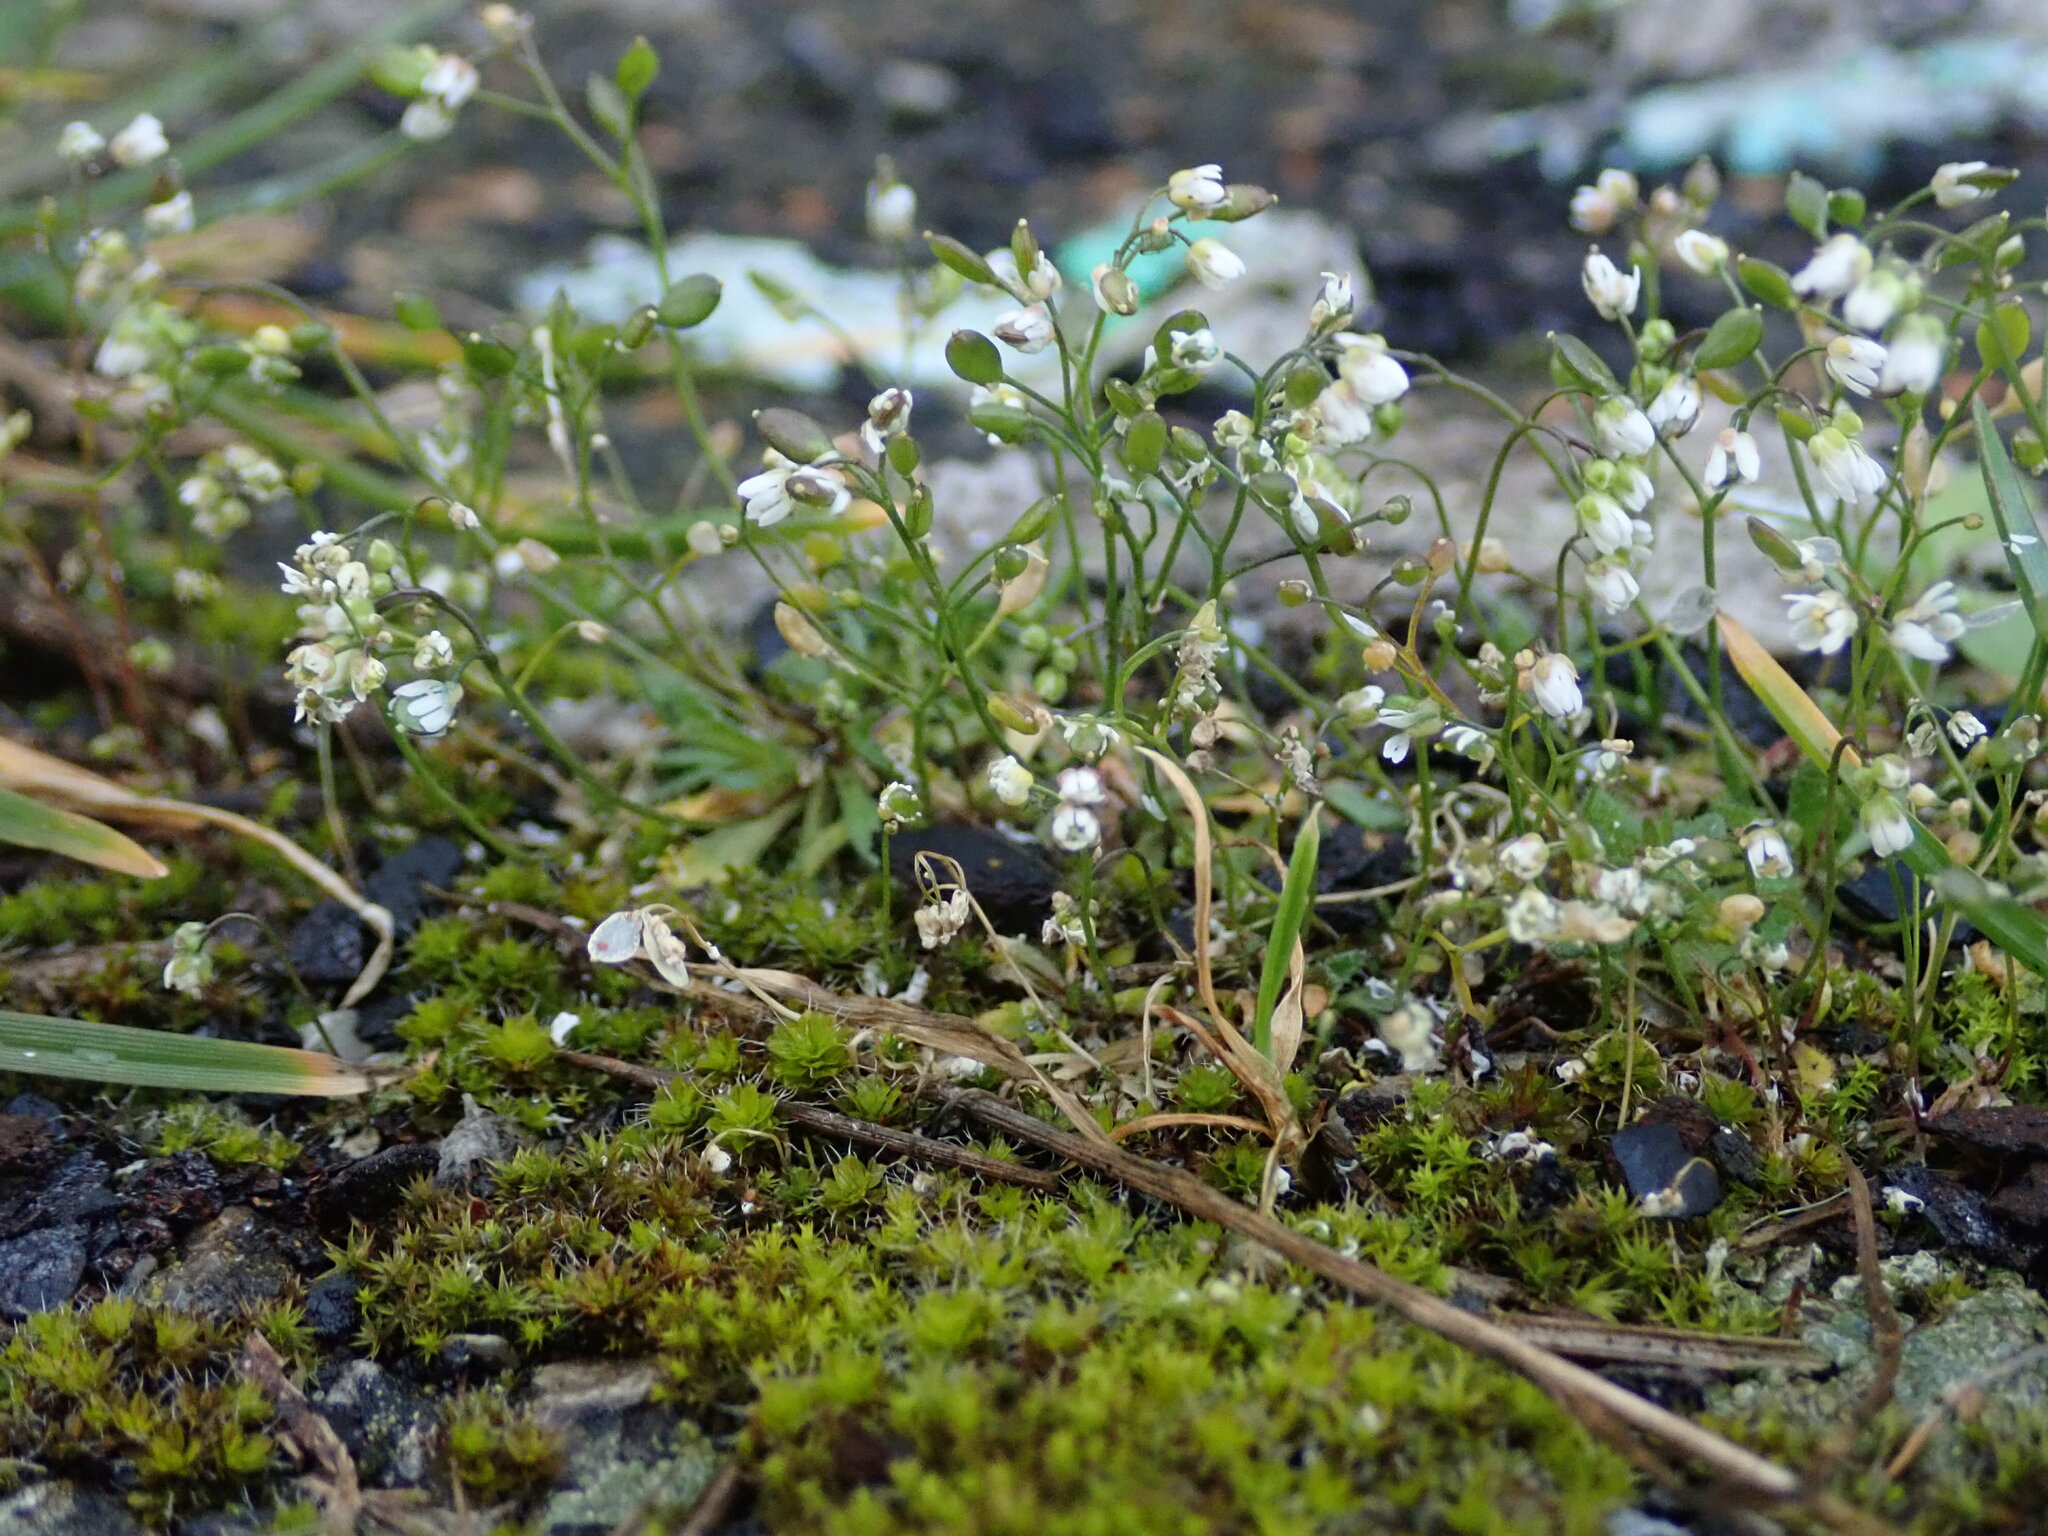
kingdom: Plantae
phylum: Tracheophyta
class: Magnoliopsida
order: Brassicales
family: Brassicaceae
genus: Draba
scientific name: Draba verna
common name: Spring draba
